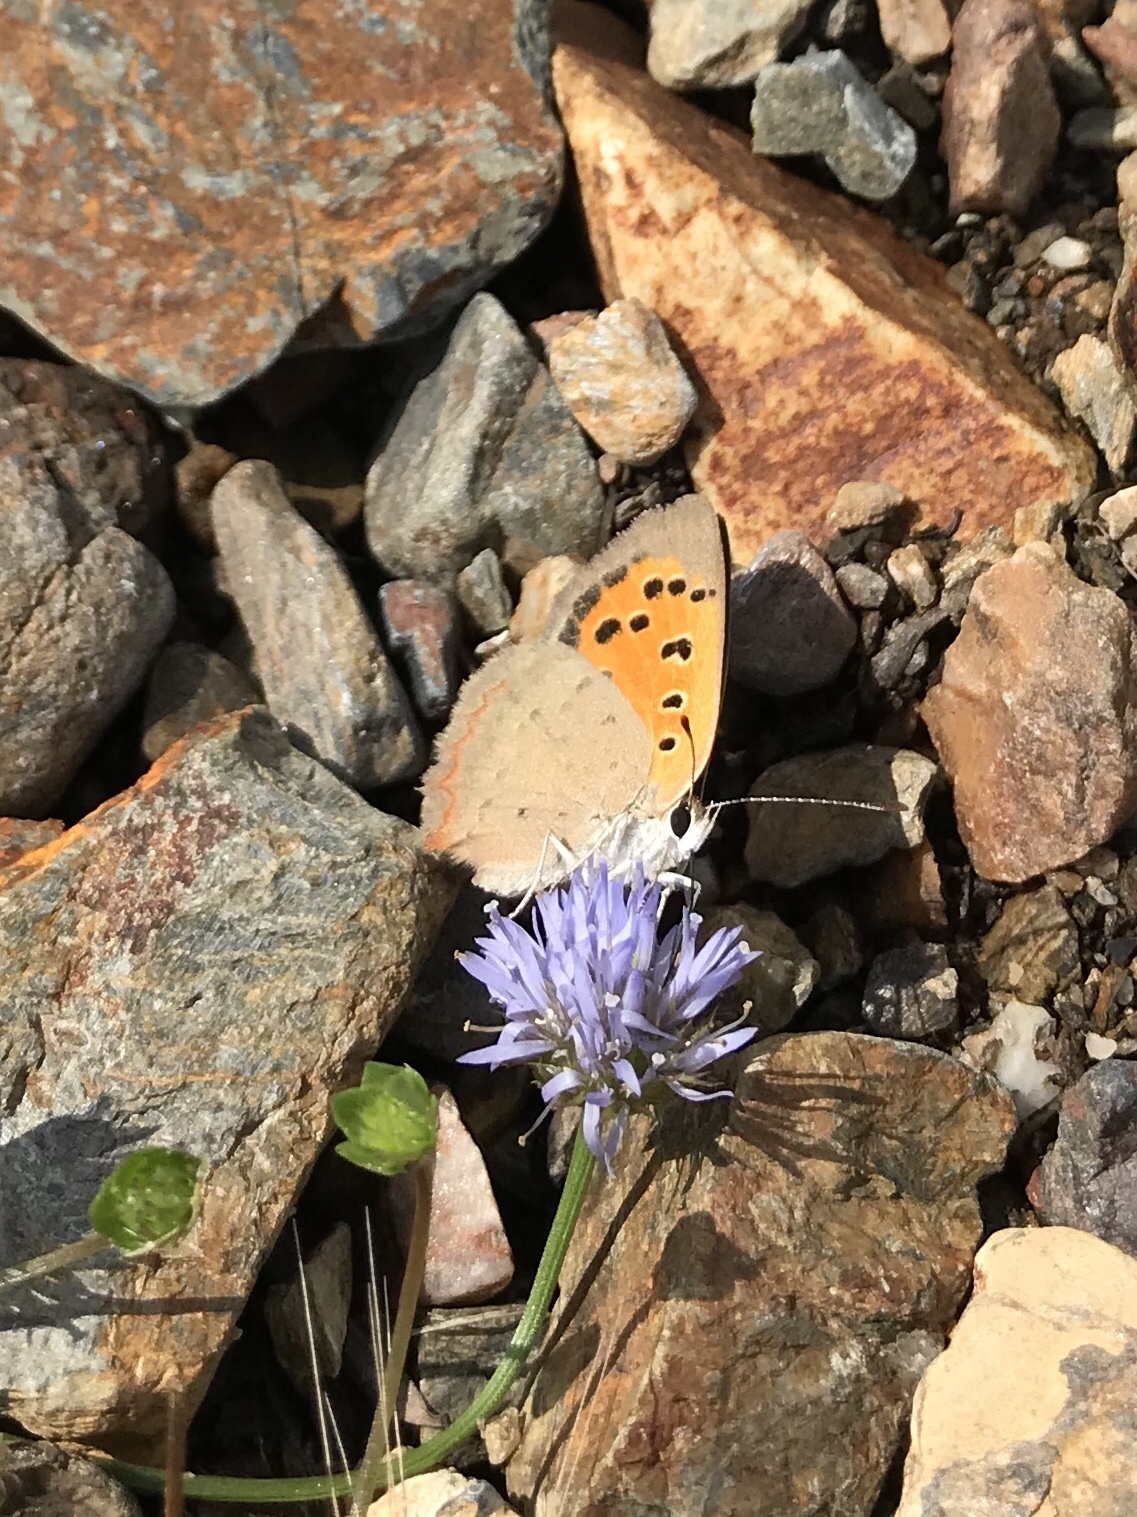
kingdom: Animalia
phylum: Arthropoda
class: Insecta
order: Lepidoptera
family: Lycaenidae
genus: Lycaena
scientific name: Lycaena phlaeas
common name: Small copper
